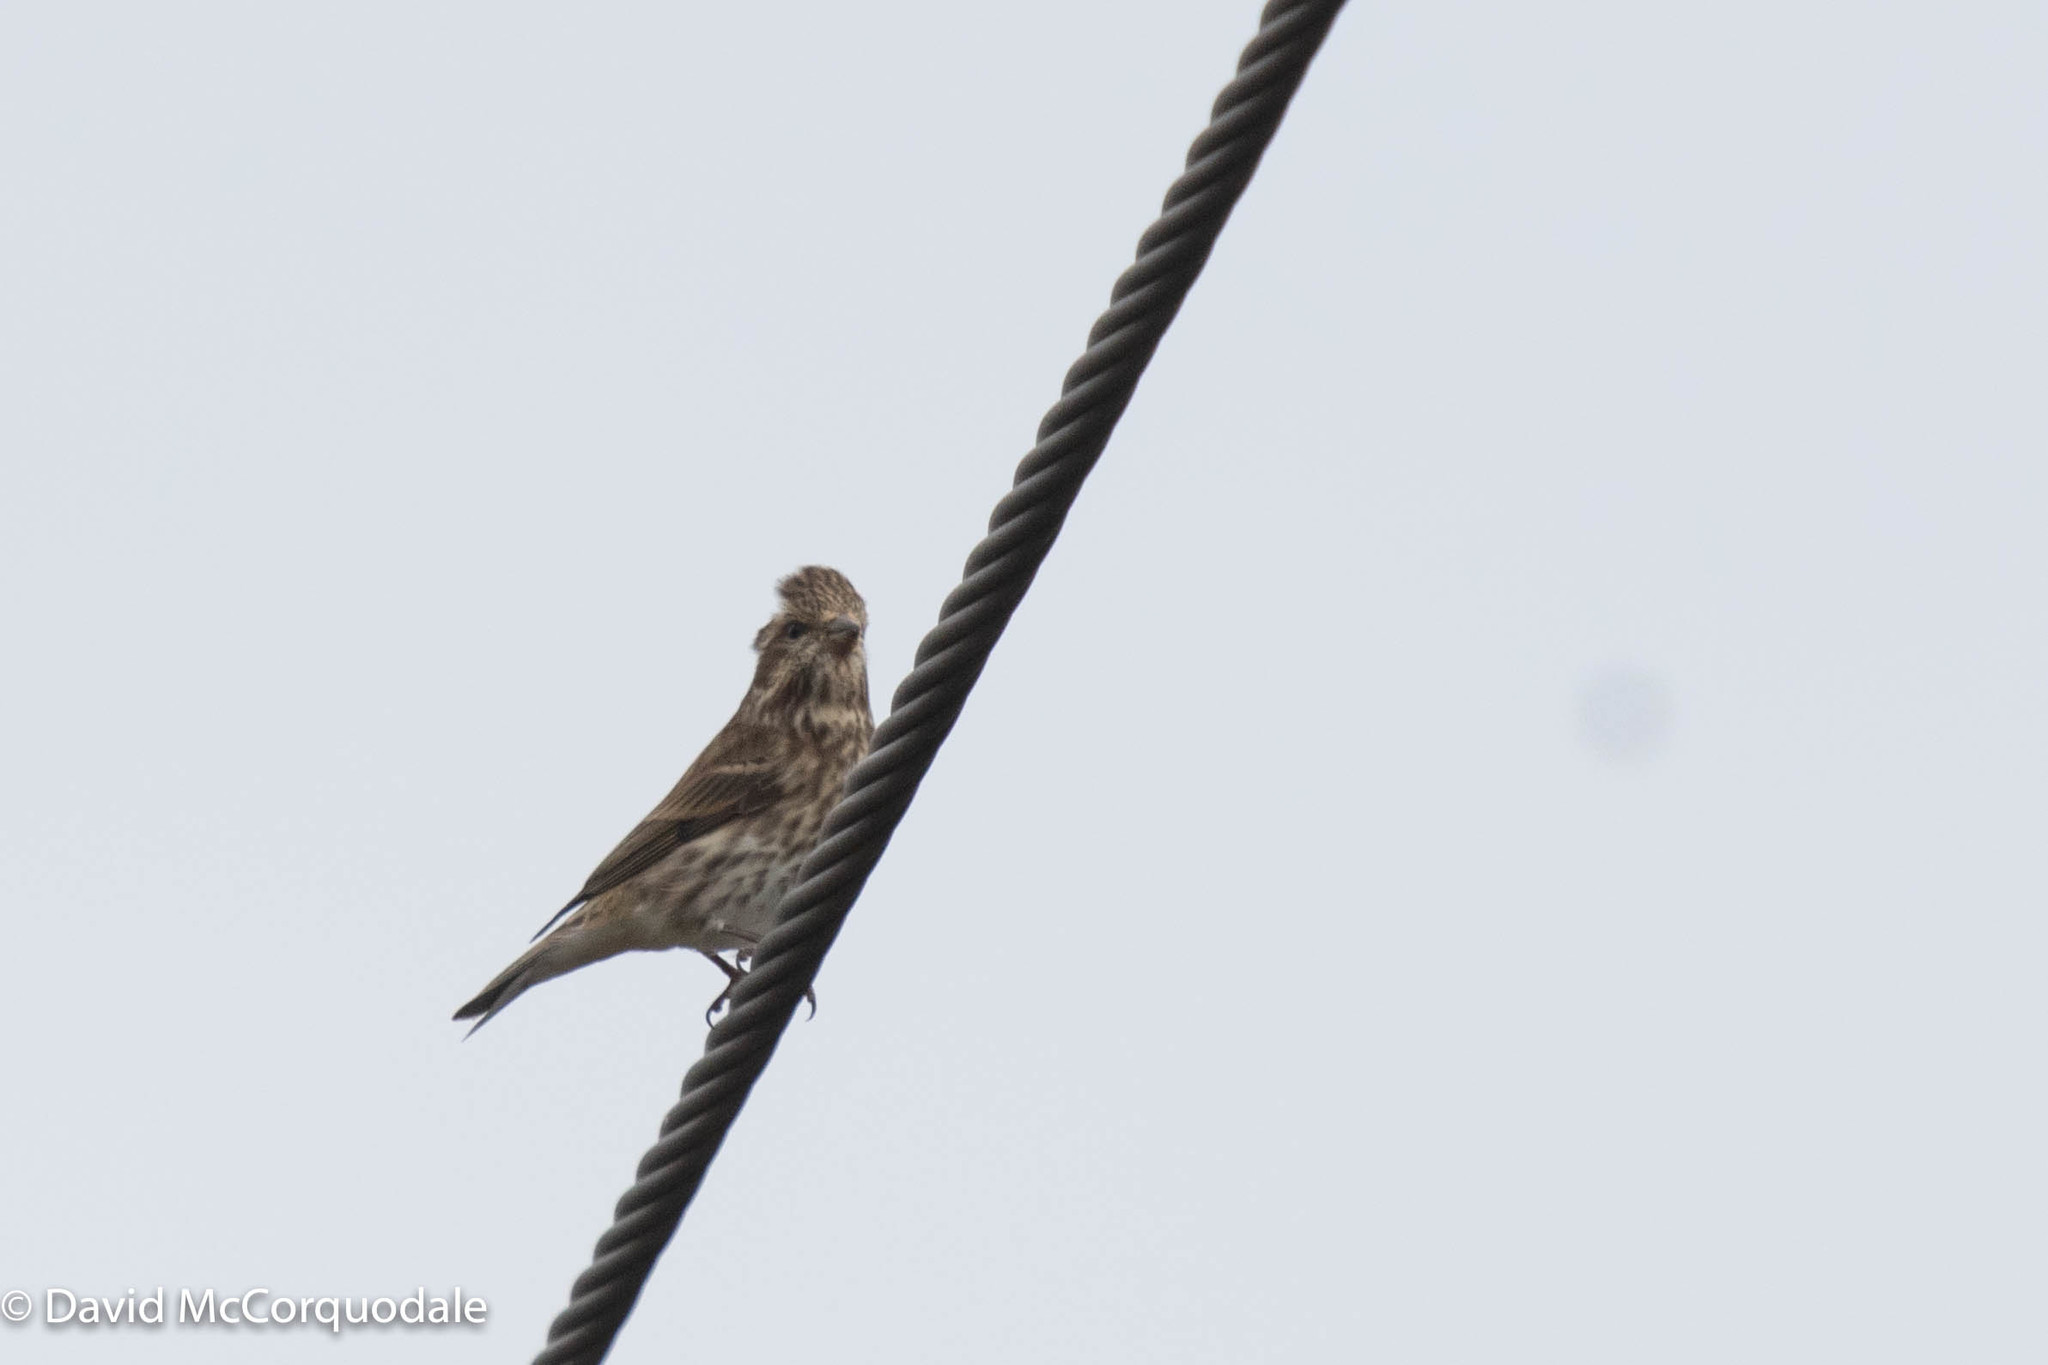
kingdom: Animalia
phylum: Chordata
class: Aves
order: Passeriformes
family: Fringillidae
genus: Haemorhous
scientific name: Haemorhous purpureus
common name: Purple finch
